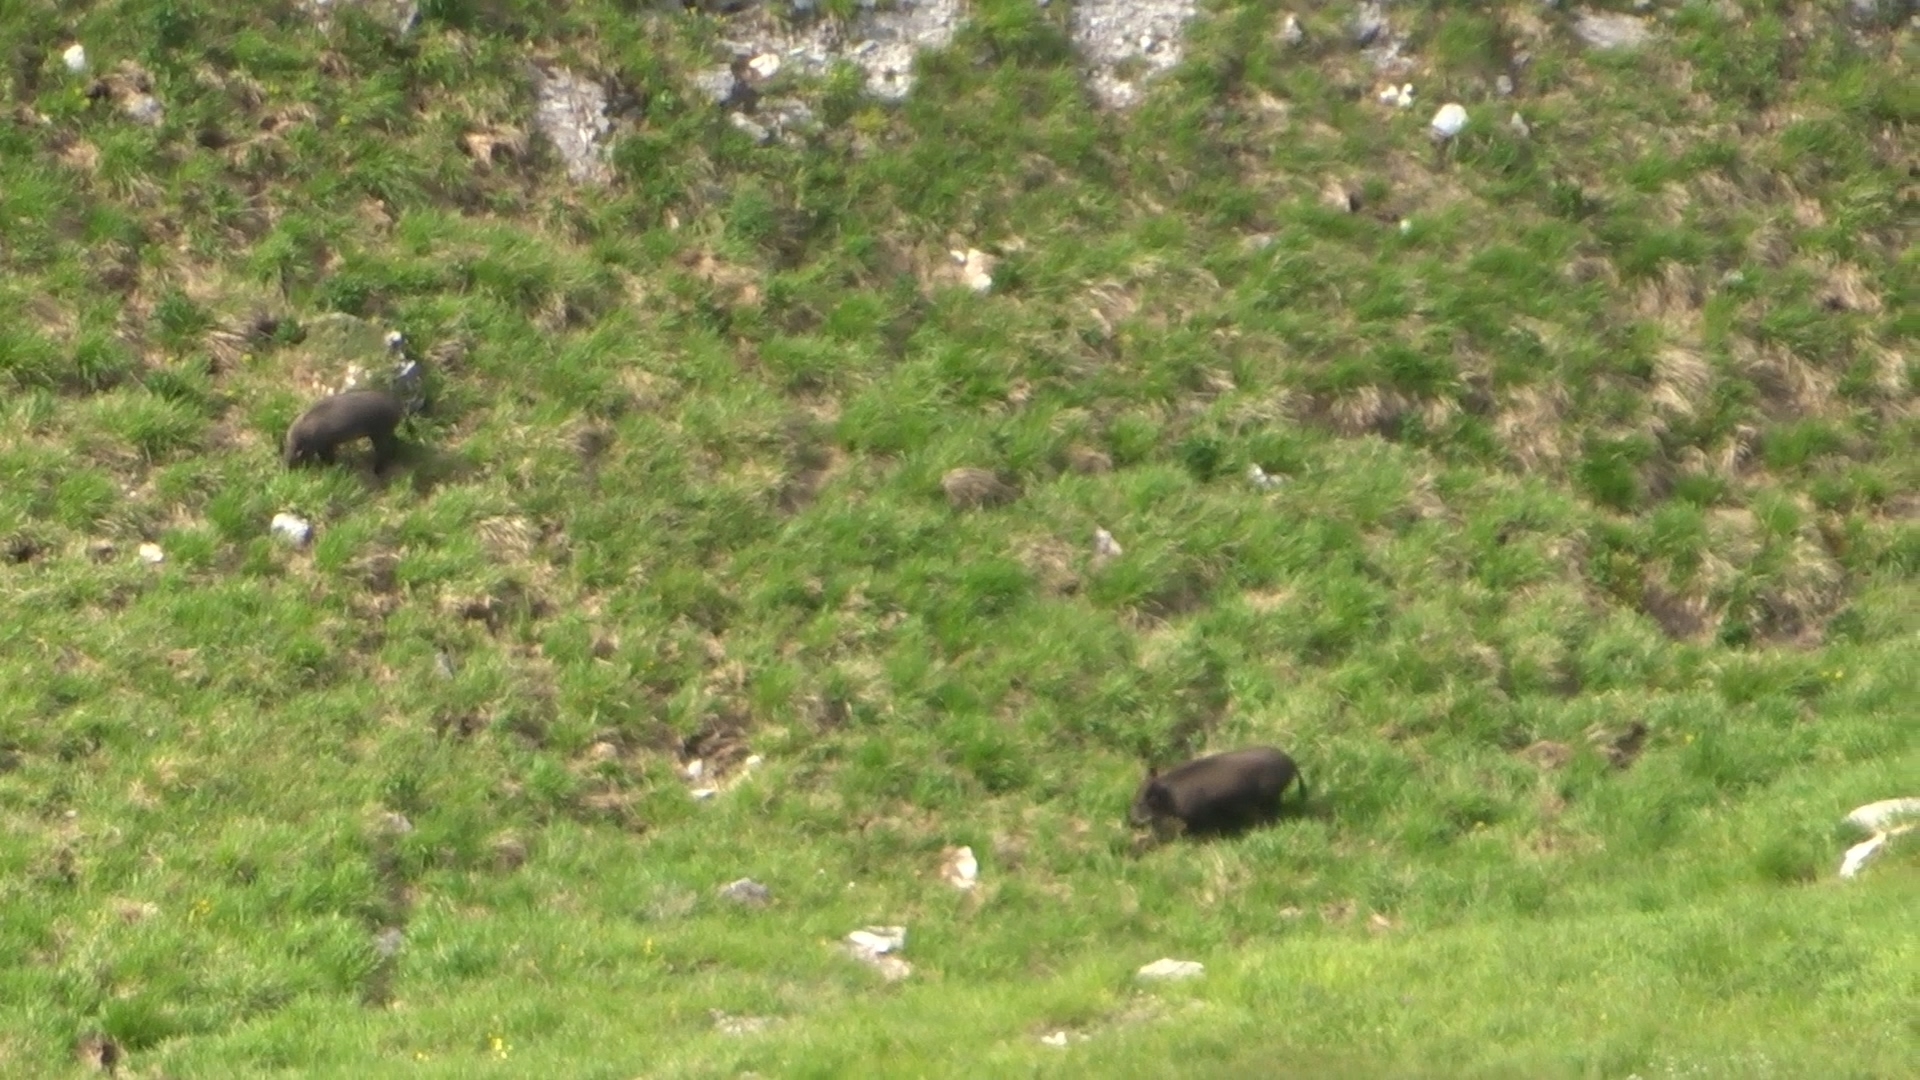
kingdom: Animalia
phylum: Chordata
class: Mammalia
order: Artiodactyla
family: Suidae
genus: Sus
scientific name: Sus scrofa
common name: Wild boar
